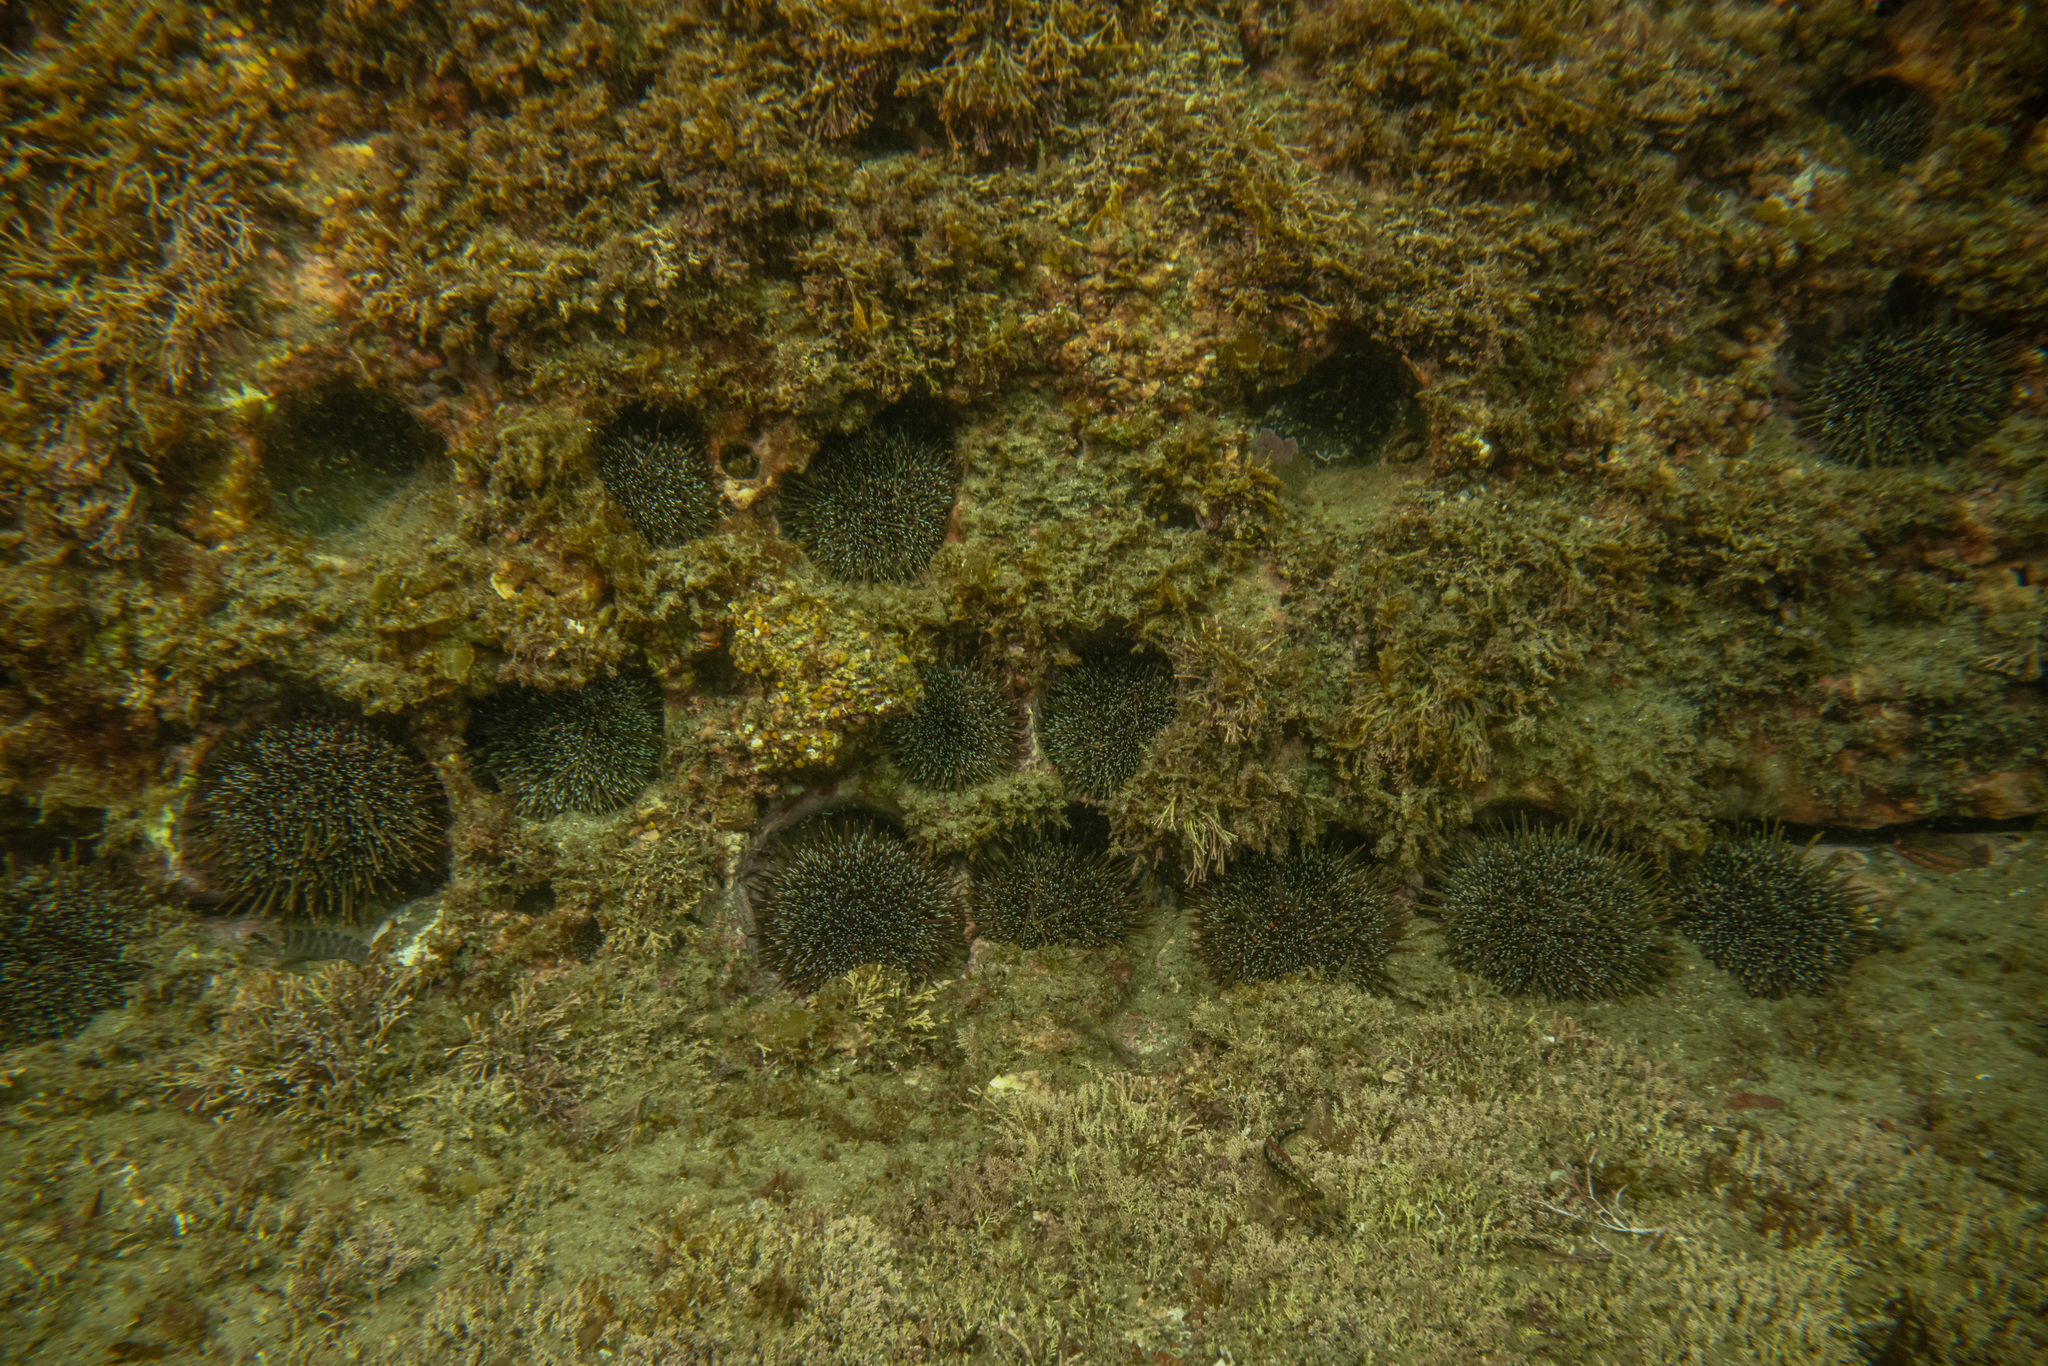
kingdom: Animalia
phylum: Echinodermata
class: Echinoidea
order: Camarodonta
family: Echinometridae
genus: Evechinus
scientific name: Evechinus chloroticus
